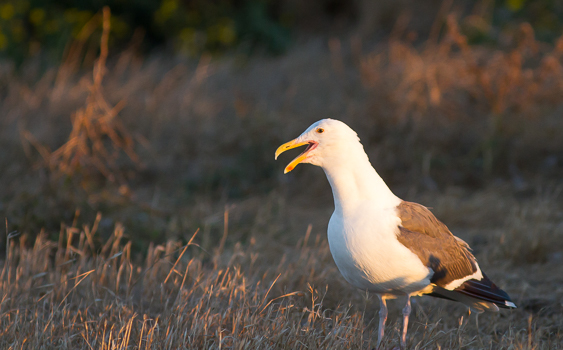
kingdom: Animalia
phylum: Chordata
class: Aves
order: Charadriiformes
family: Laridae
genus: Larus
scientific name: Larus occidentalis
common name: Western gull
